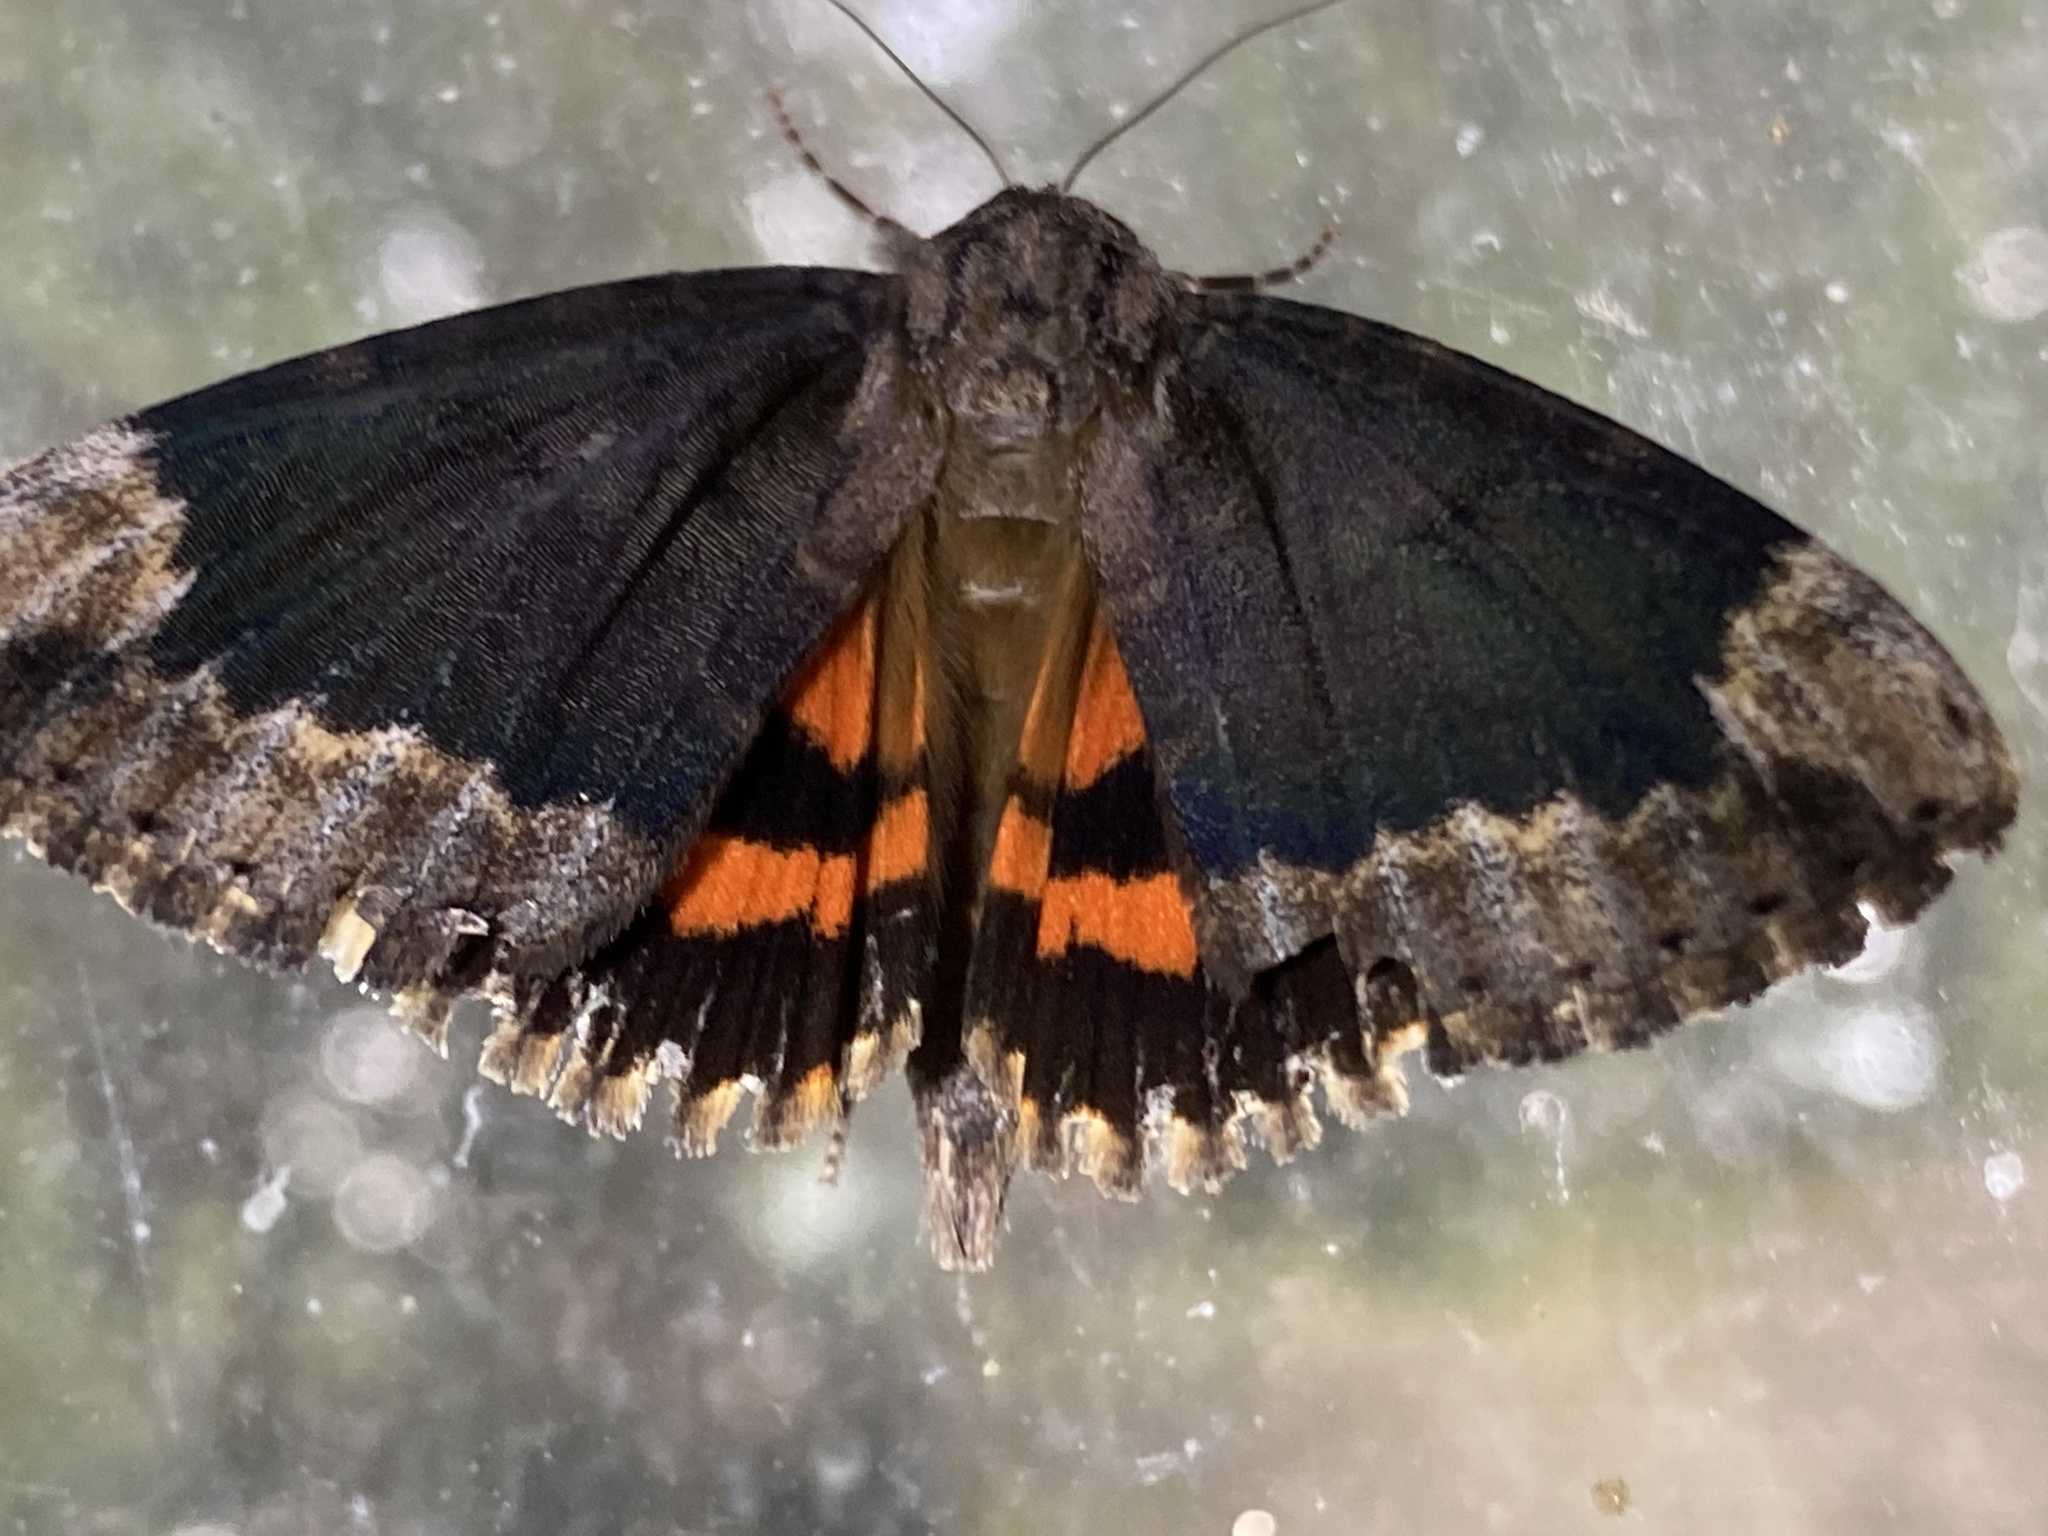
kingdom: Animalia
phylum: Arthropoda
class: Insecta
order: Lepidoptera
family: Erebidae
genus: Catocala
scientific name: Catocala innubens
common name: Betrothed underwing
